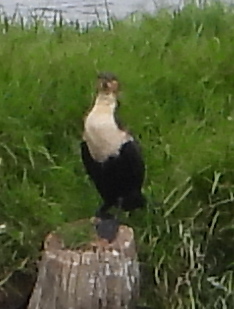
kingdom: Animalia
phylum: Chordata
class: Aves
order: Suliformes
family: Phalacrocoracidae
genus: Phalacrocorax
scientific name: Phalacrocorax carbo
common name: Great cormorant
